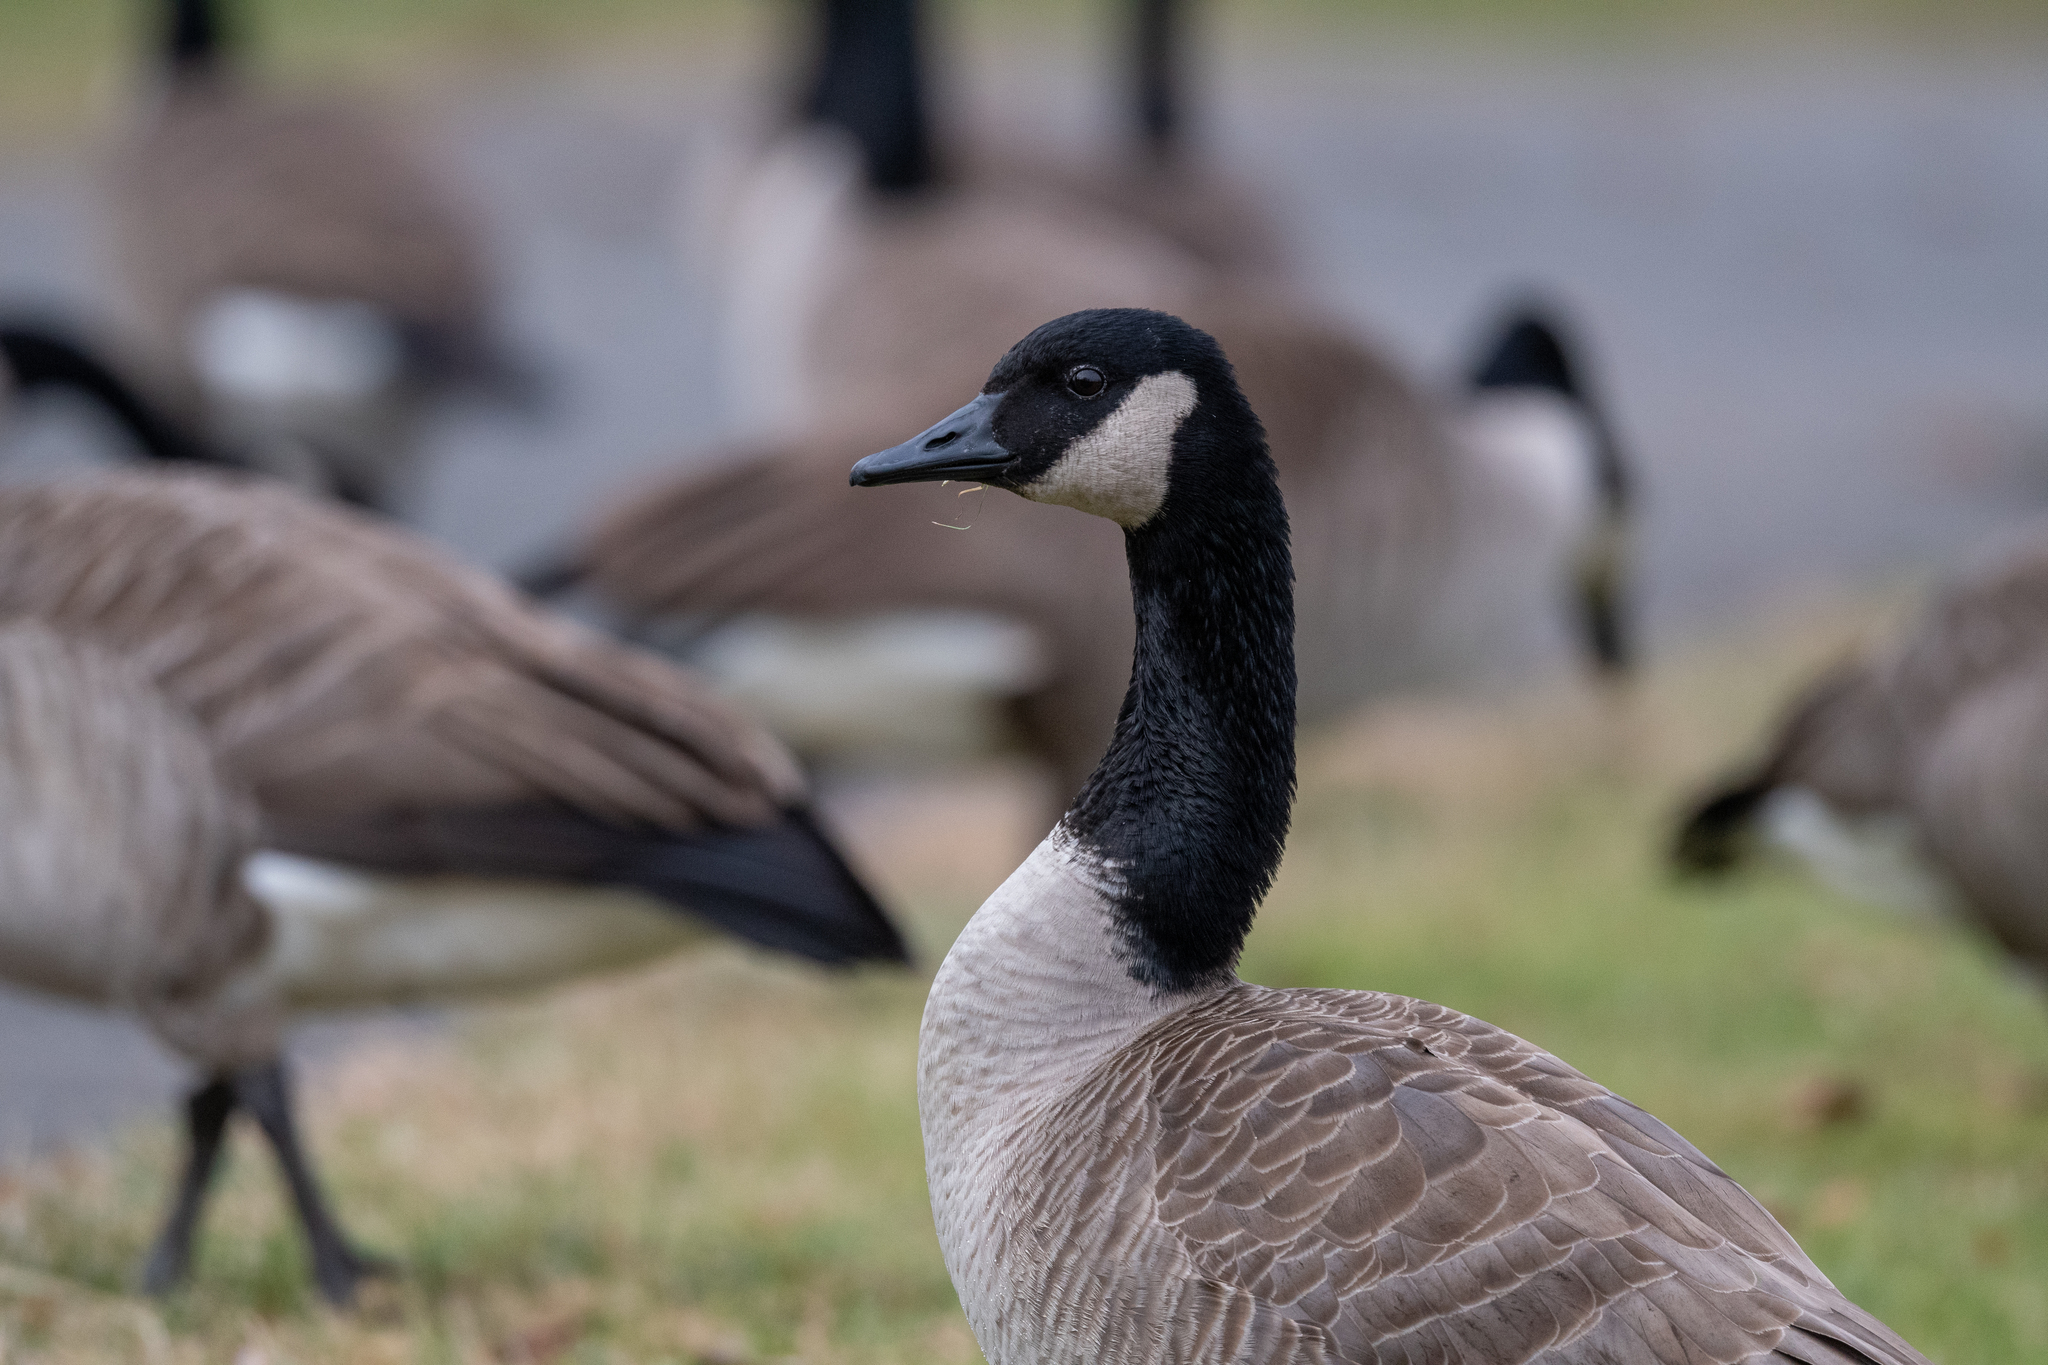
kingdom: Animalia
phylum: Chordata
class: Aves
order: Anseriformes
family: Anatidae
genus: Branta
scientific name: Branta canadensis
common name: Canada goose
